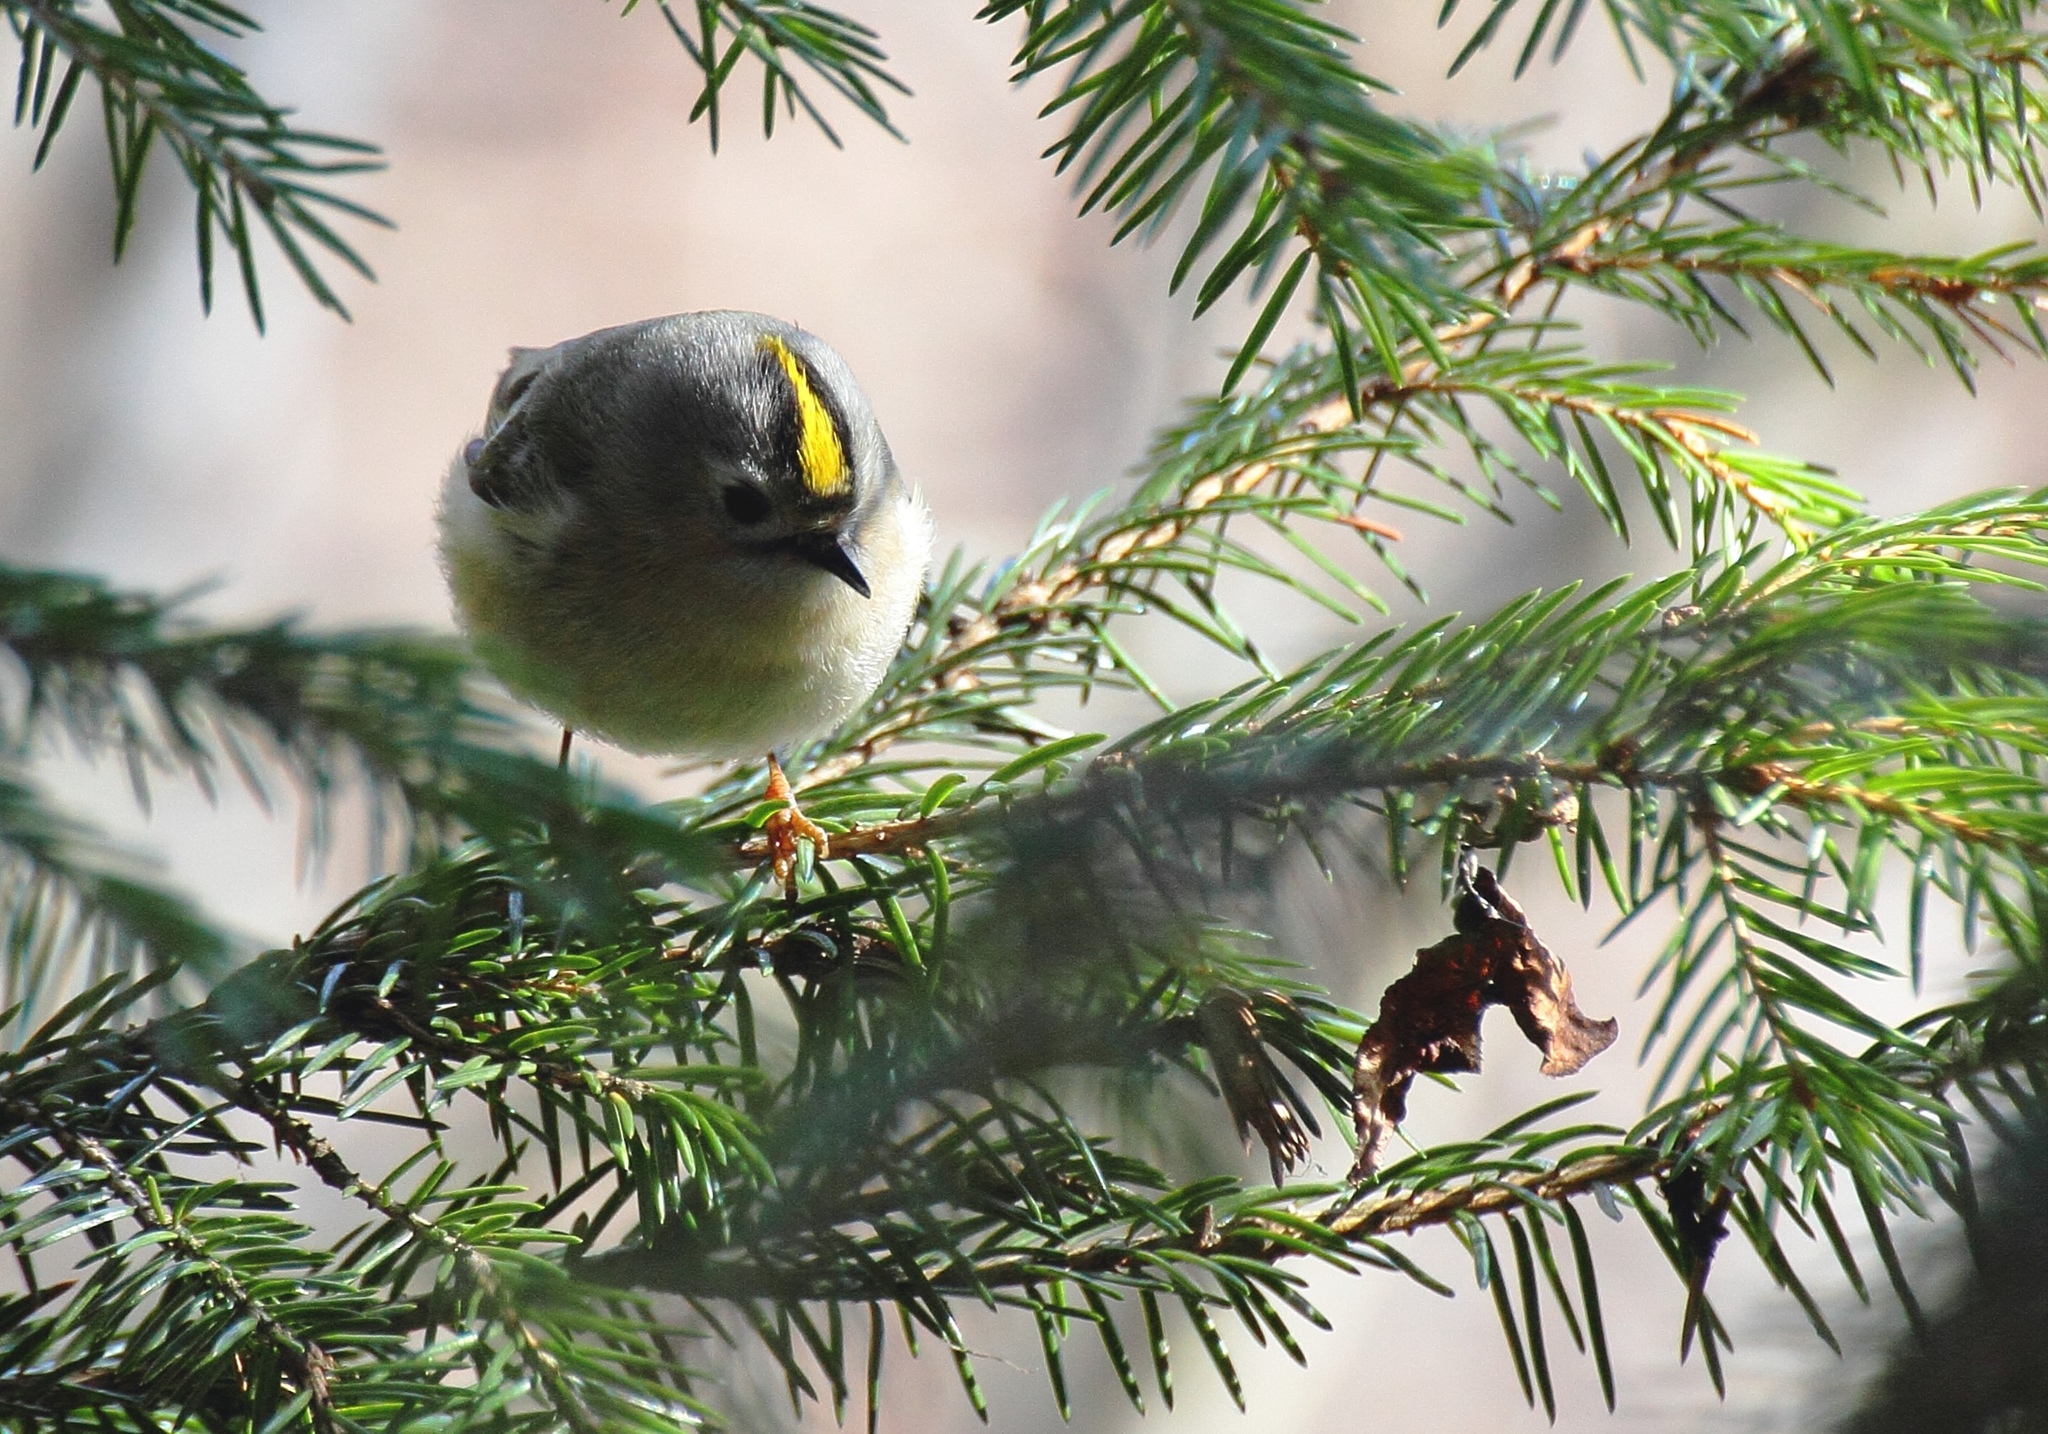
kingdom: Animalia
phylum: Chordata
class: Aves
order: Passeriformes
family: Regulidae
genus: Regulus
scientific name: Regulus regulus
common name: Goldcrest
